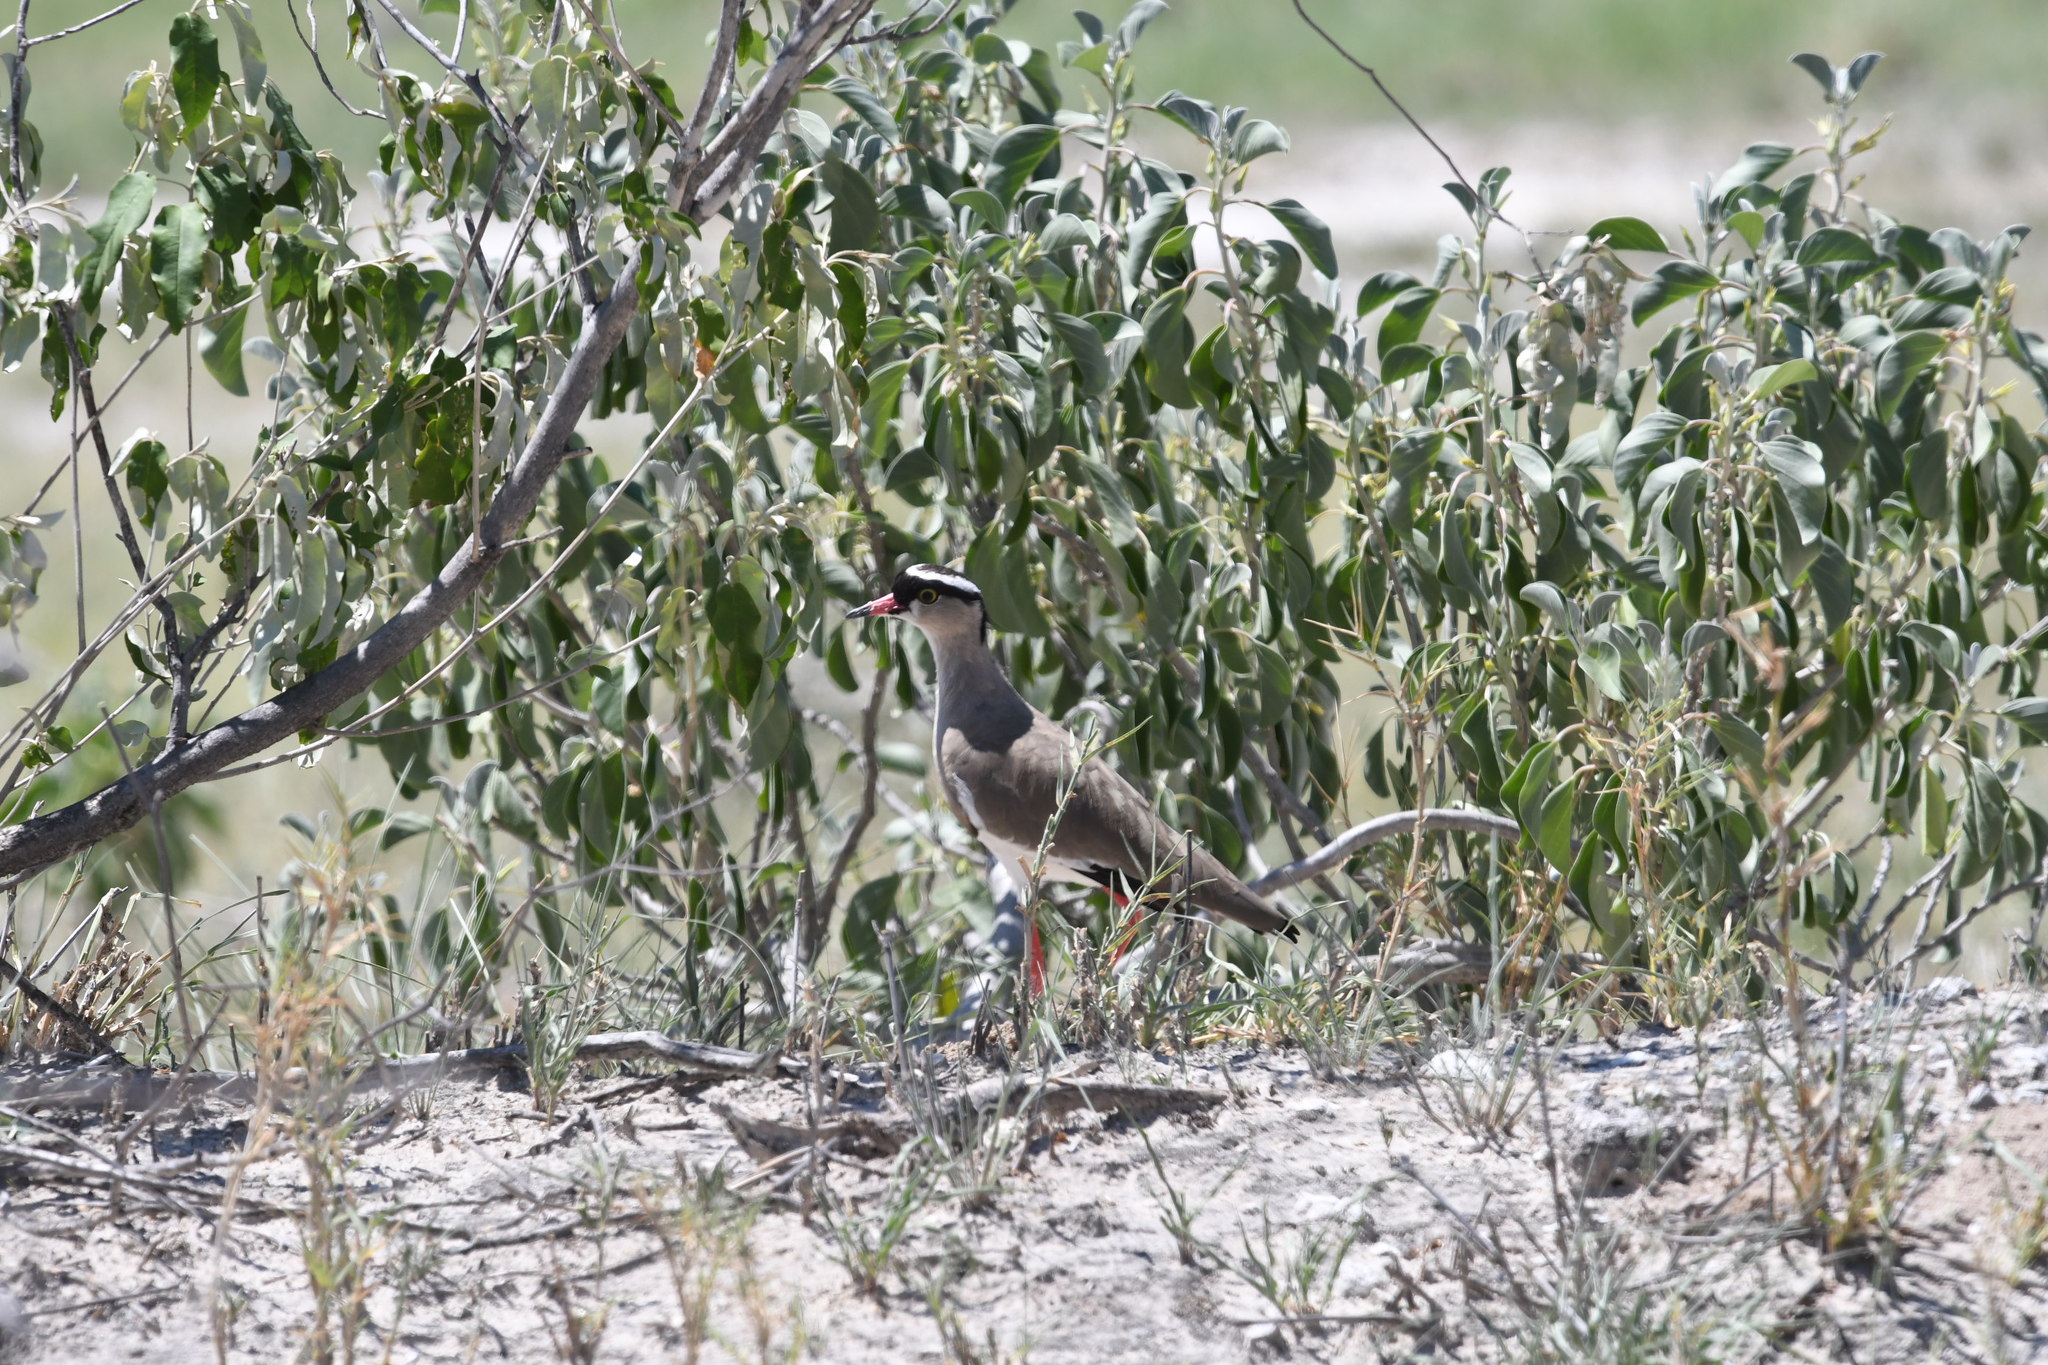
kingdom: Animalia
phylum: Chordata
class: Aves
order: Charadriiformes
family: Charadriidae
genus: Vanellus
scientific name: Vanellus coronatus
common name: Crowned lapwing
